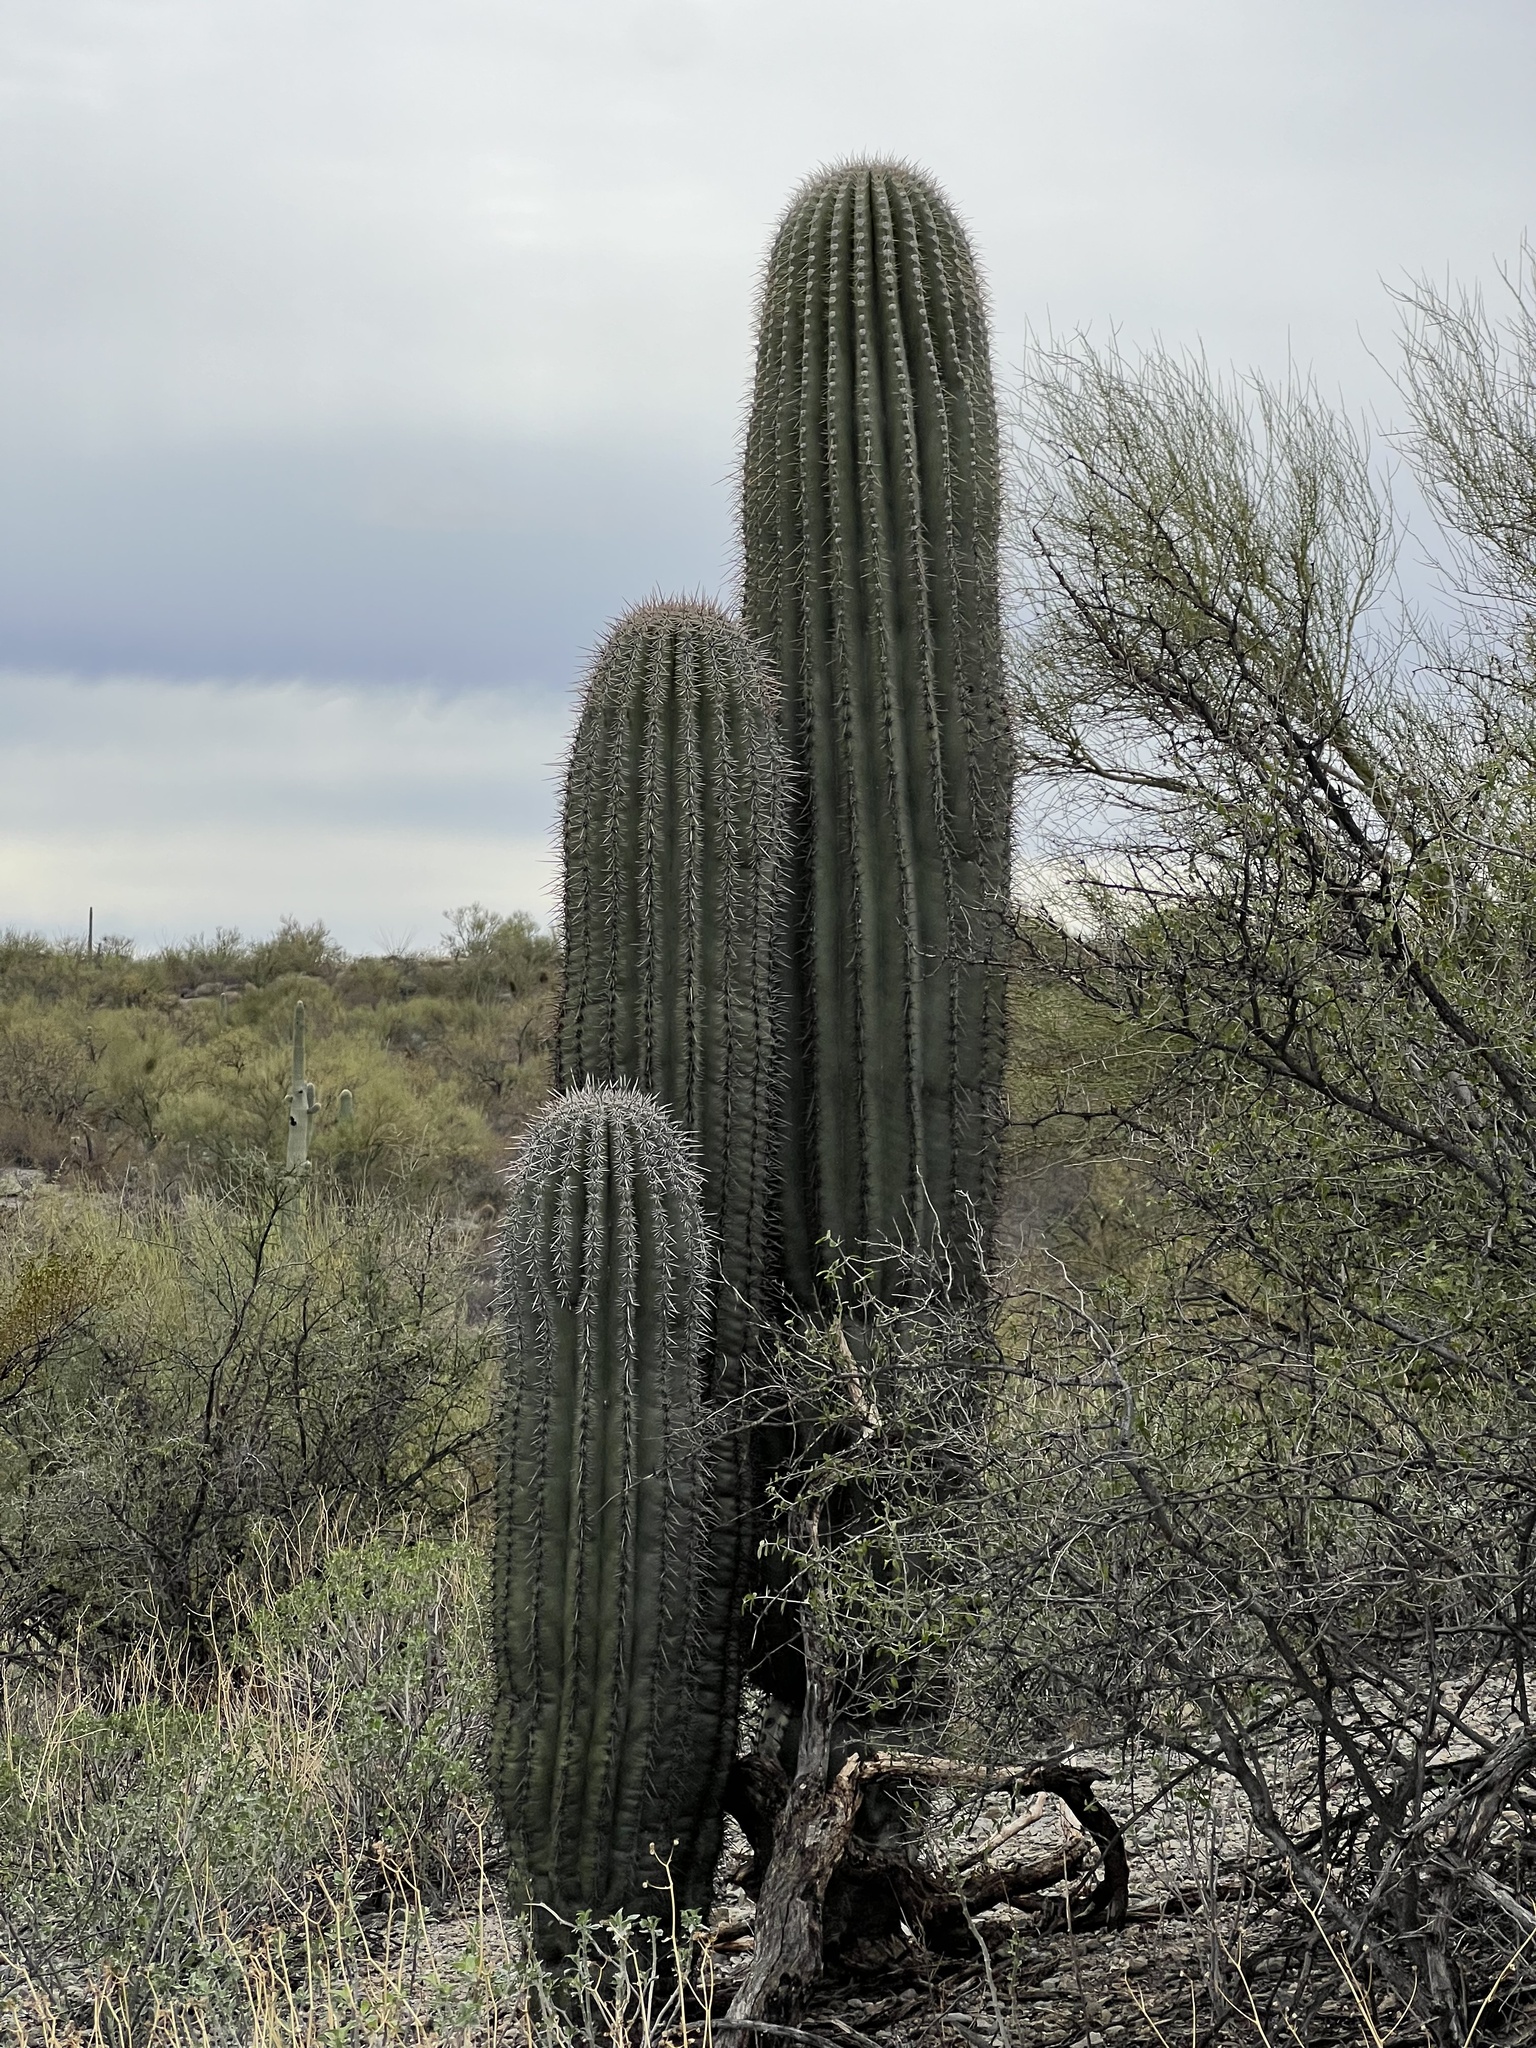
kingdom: Plantae
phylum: Tracheophyta
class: Magnoliopsida
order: Caryophyllales
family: Cactaceae
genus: Carnegiea
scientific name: Carnegiea gigantea
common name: Saguaro
